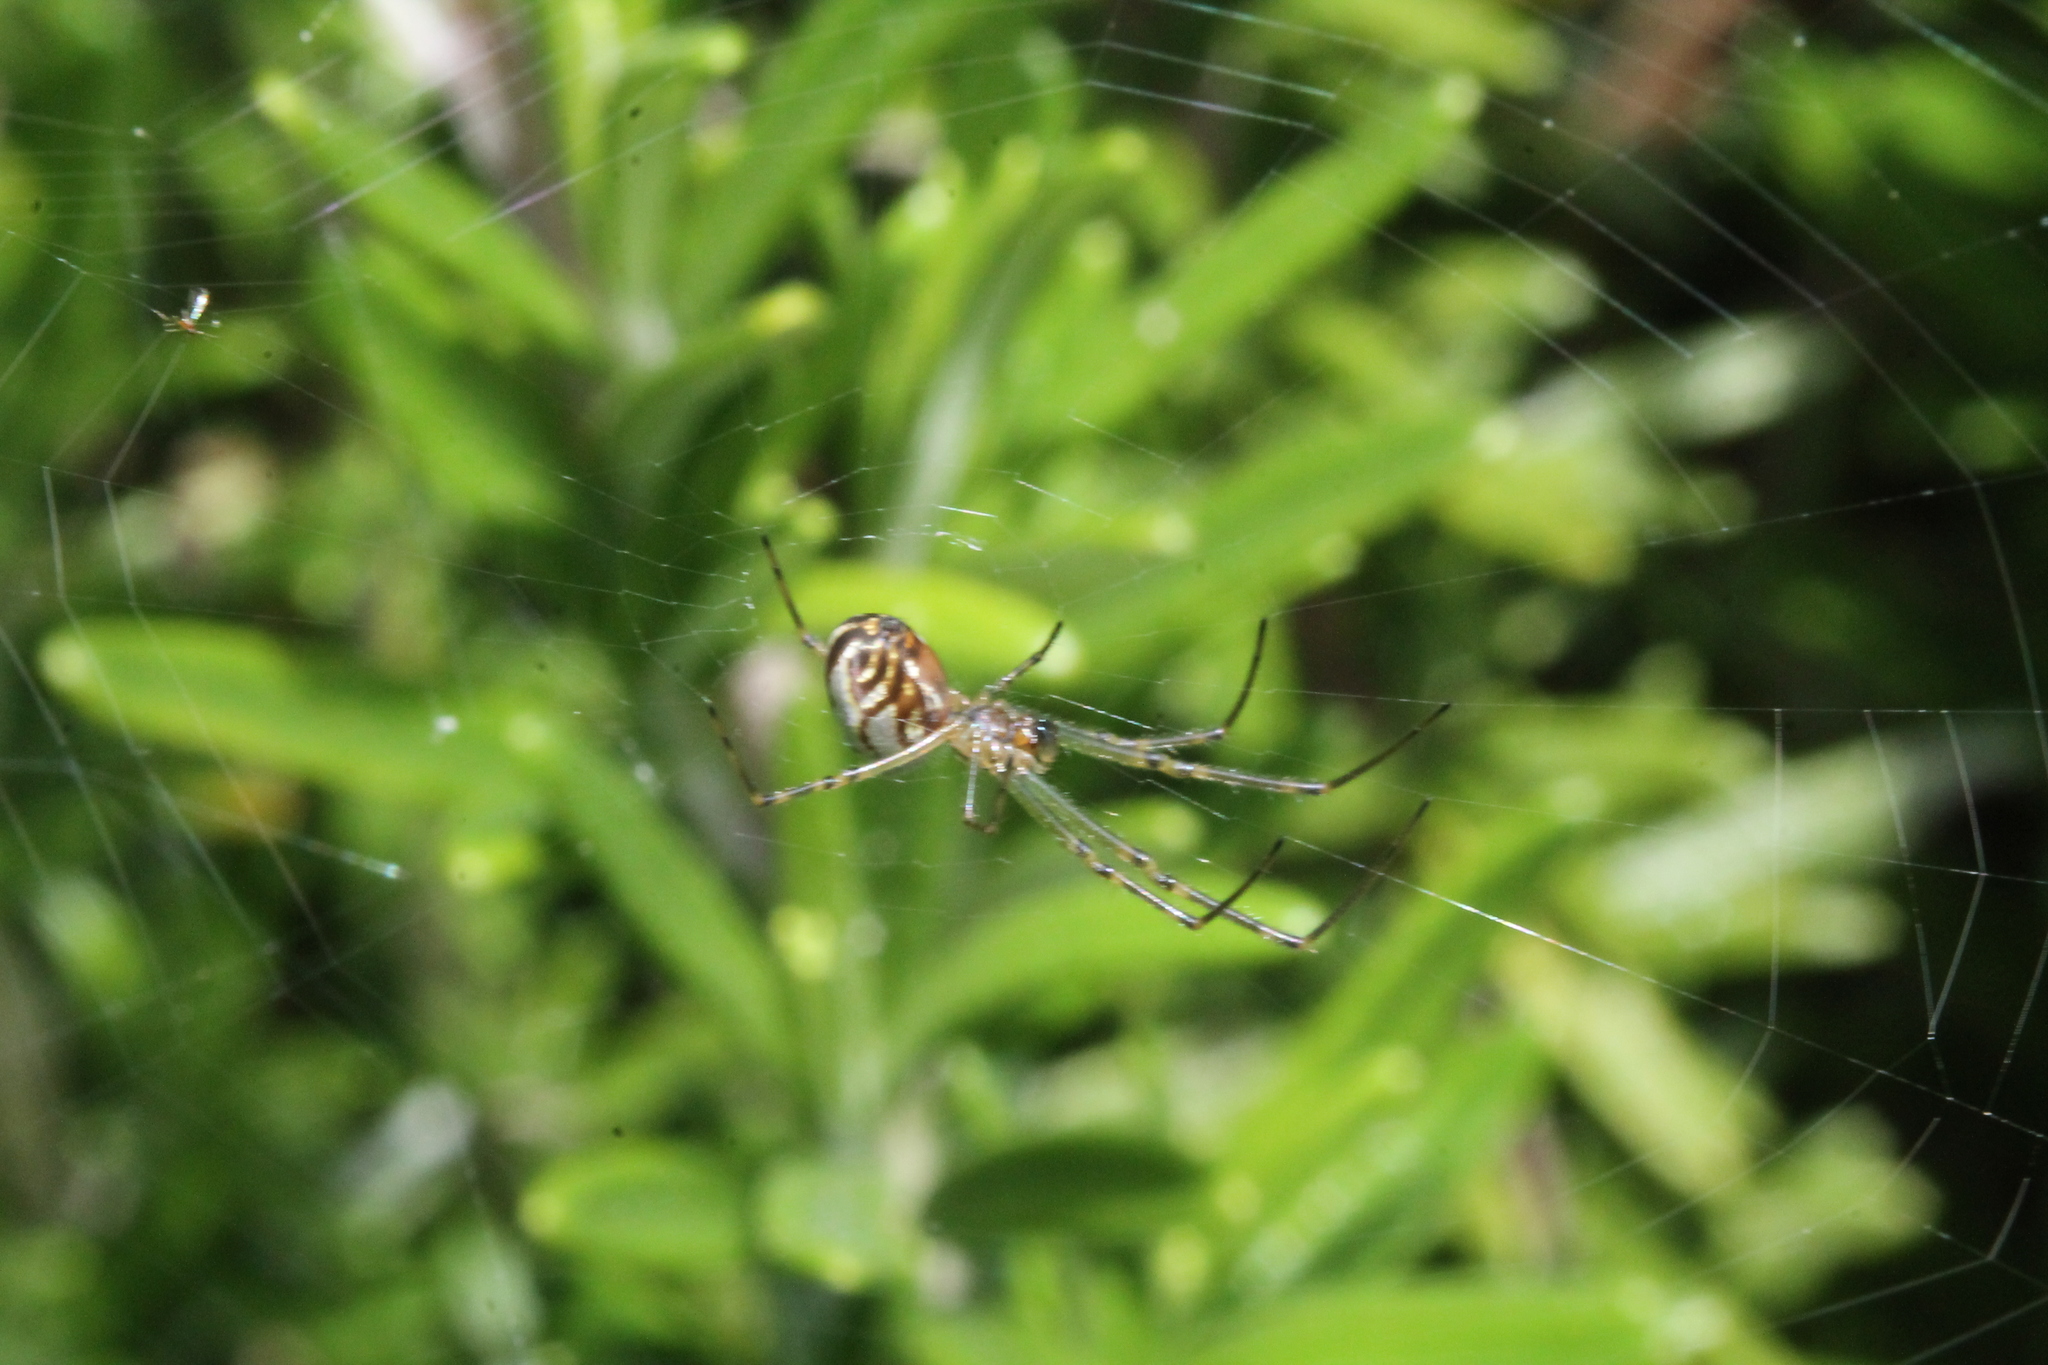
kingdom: Animalia
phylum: Arthropoda
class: Arachnida
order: Araneae
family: Tetragnathidae
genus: Leucauge
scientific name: Leucauge dromedaria
